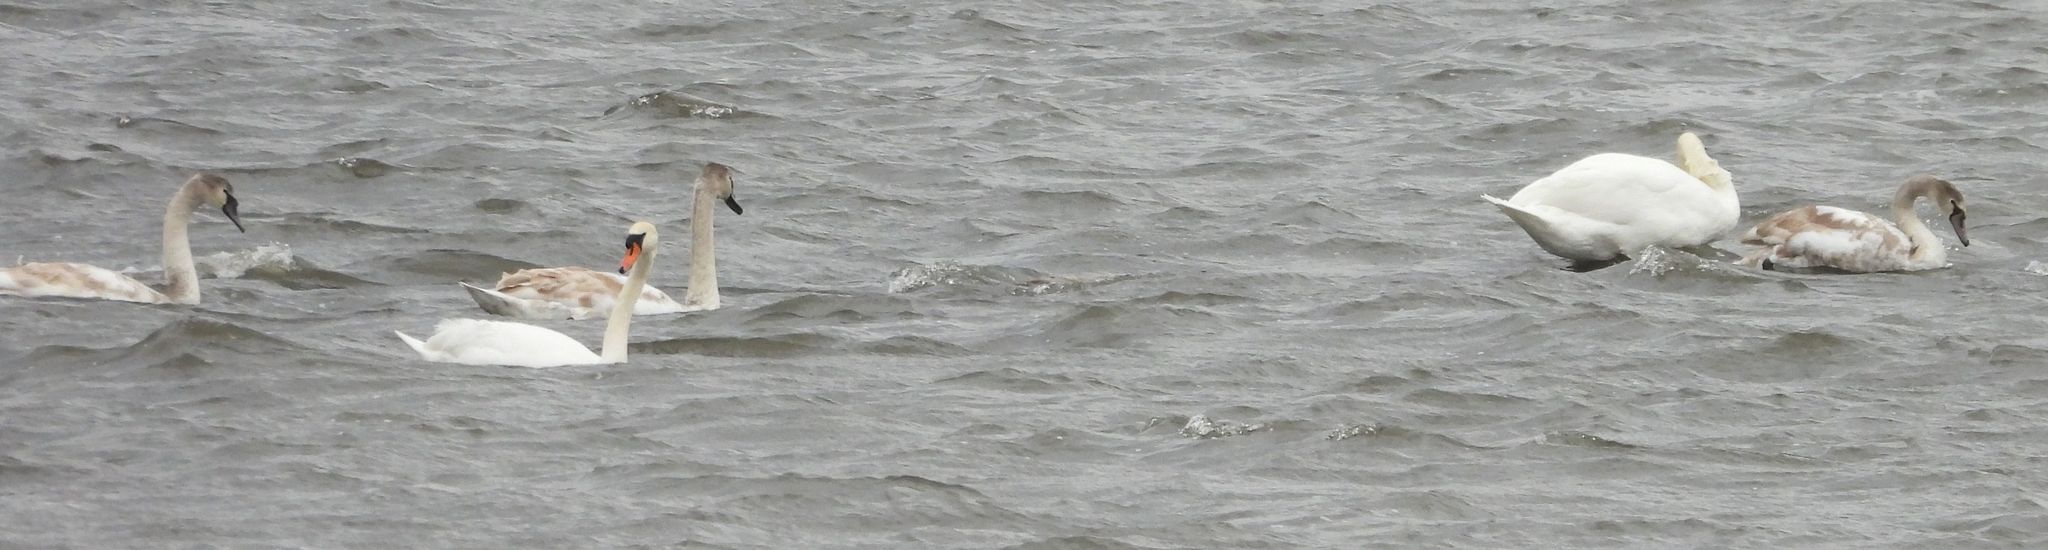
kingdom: Animalia
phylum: Chordata
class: Aves
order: Anseriformes
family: Anatidae
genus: Cygnus
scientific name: Cygnus olor
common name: Mute swan
